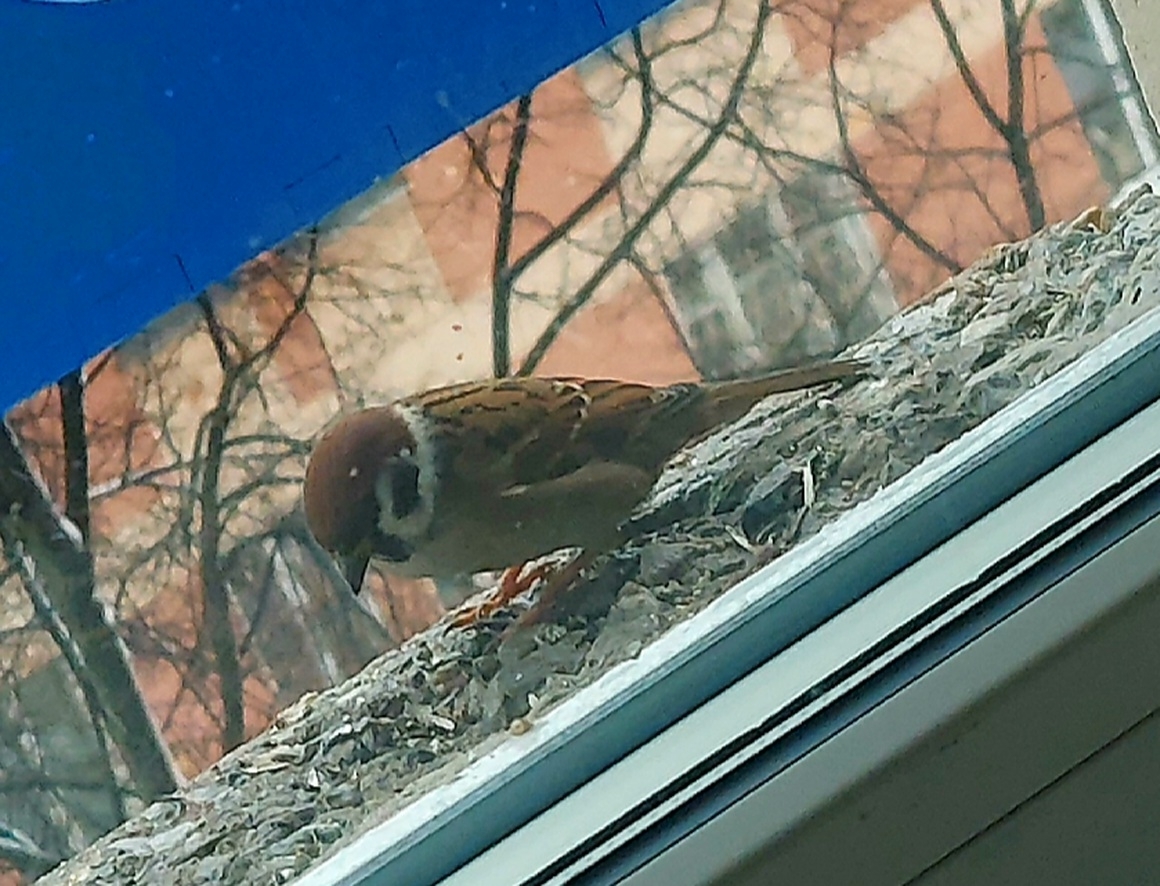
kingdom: Animalia
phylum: Chordata
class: Aves
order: Passeriformes
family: Passeridae
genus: Passer
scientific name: Passer montanus
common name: Eurasian tree sparrow
